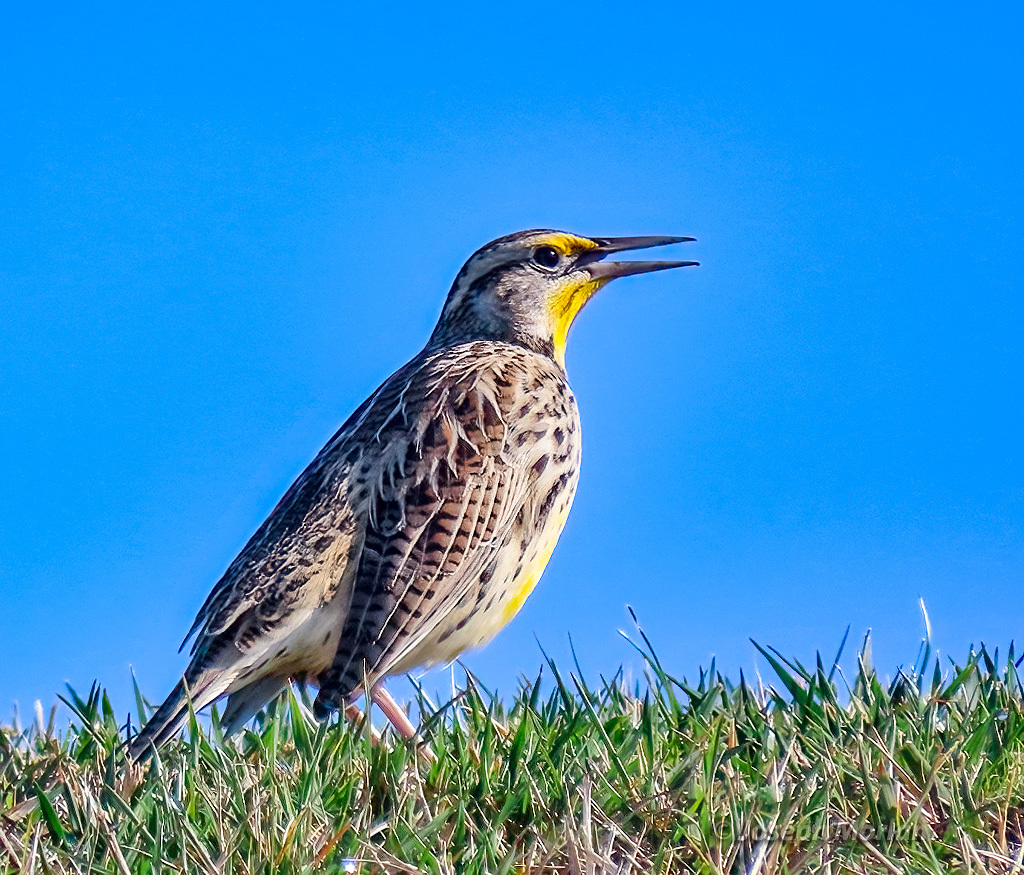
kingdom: Animalia
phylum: Chordata
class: Aves
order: Passeriformes
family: Icteridae
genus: Sturnella
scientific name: Sturnella neglecta
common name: Western meadowlark
